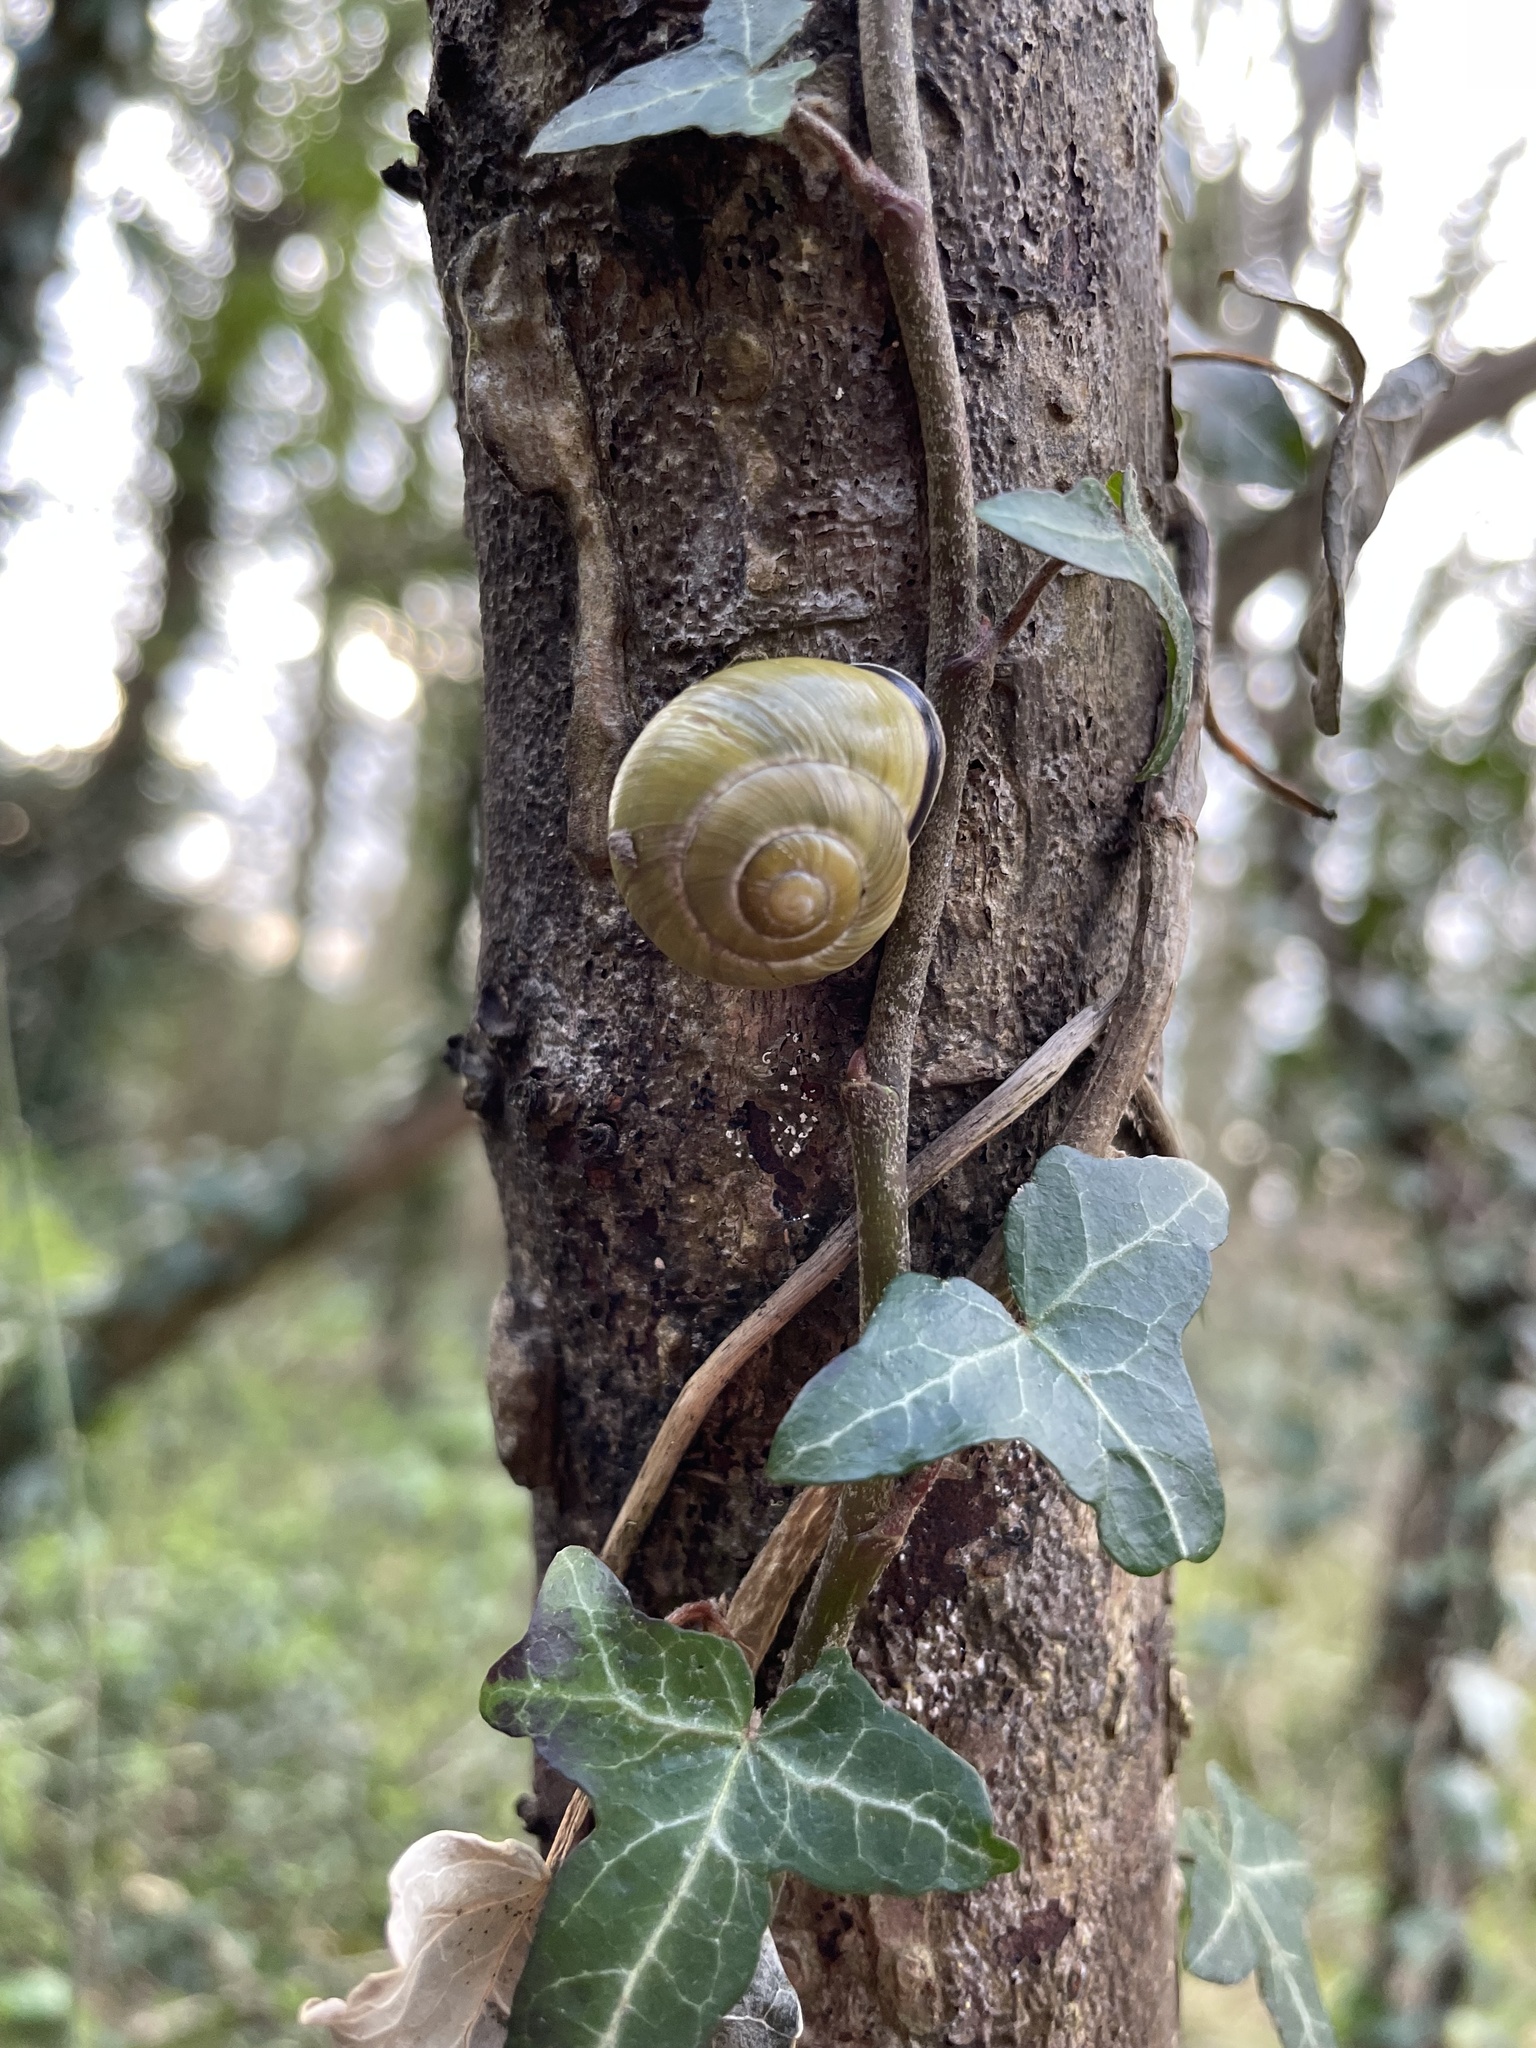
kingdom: Animalia
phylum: Mollusca
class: Gastropoda
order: Stylommatophora
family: Helicidae
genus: Cepaea
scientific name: Cepaea nemoralis
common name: Grovesnail
